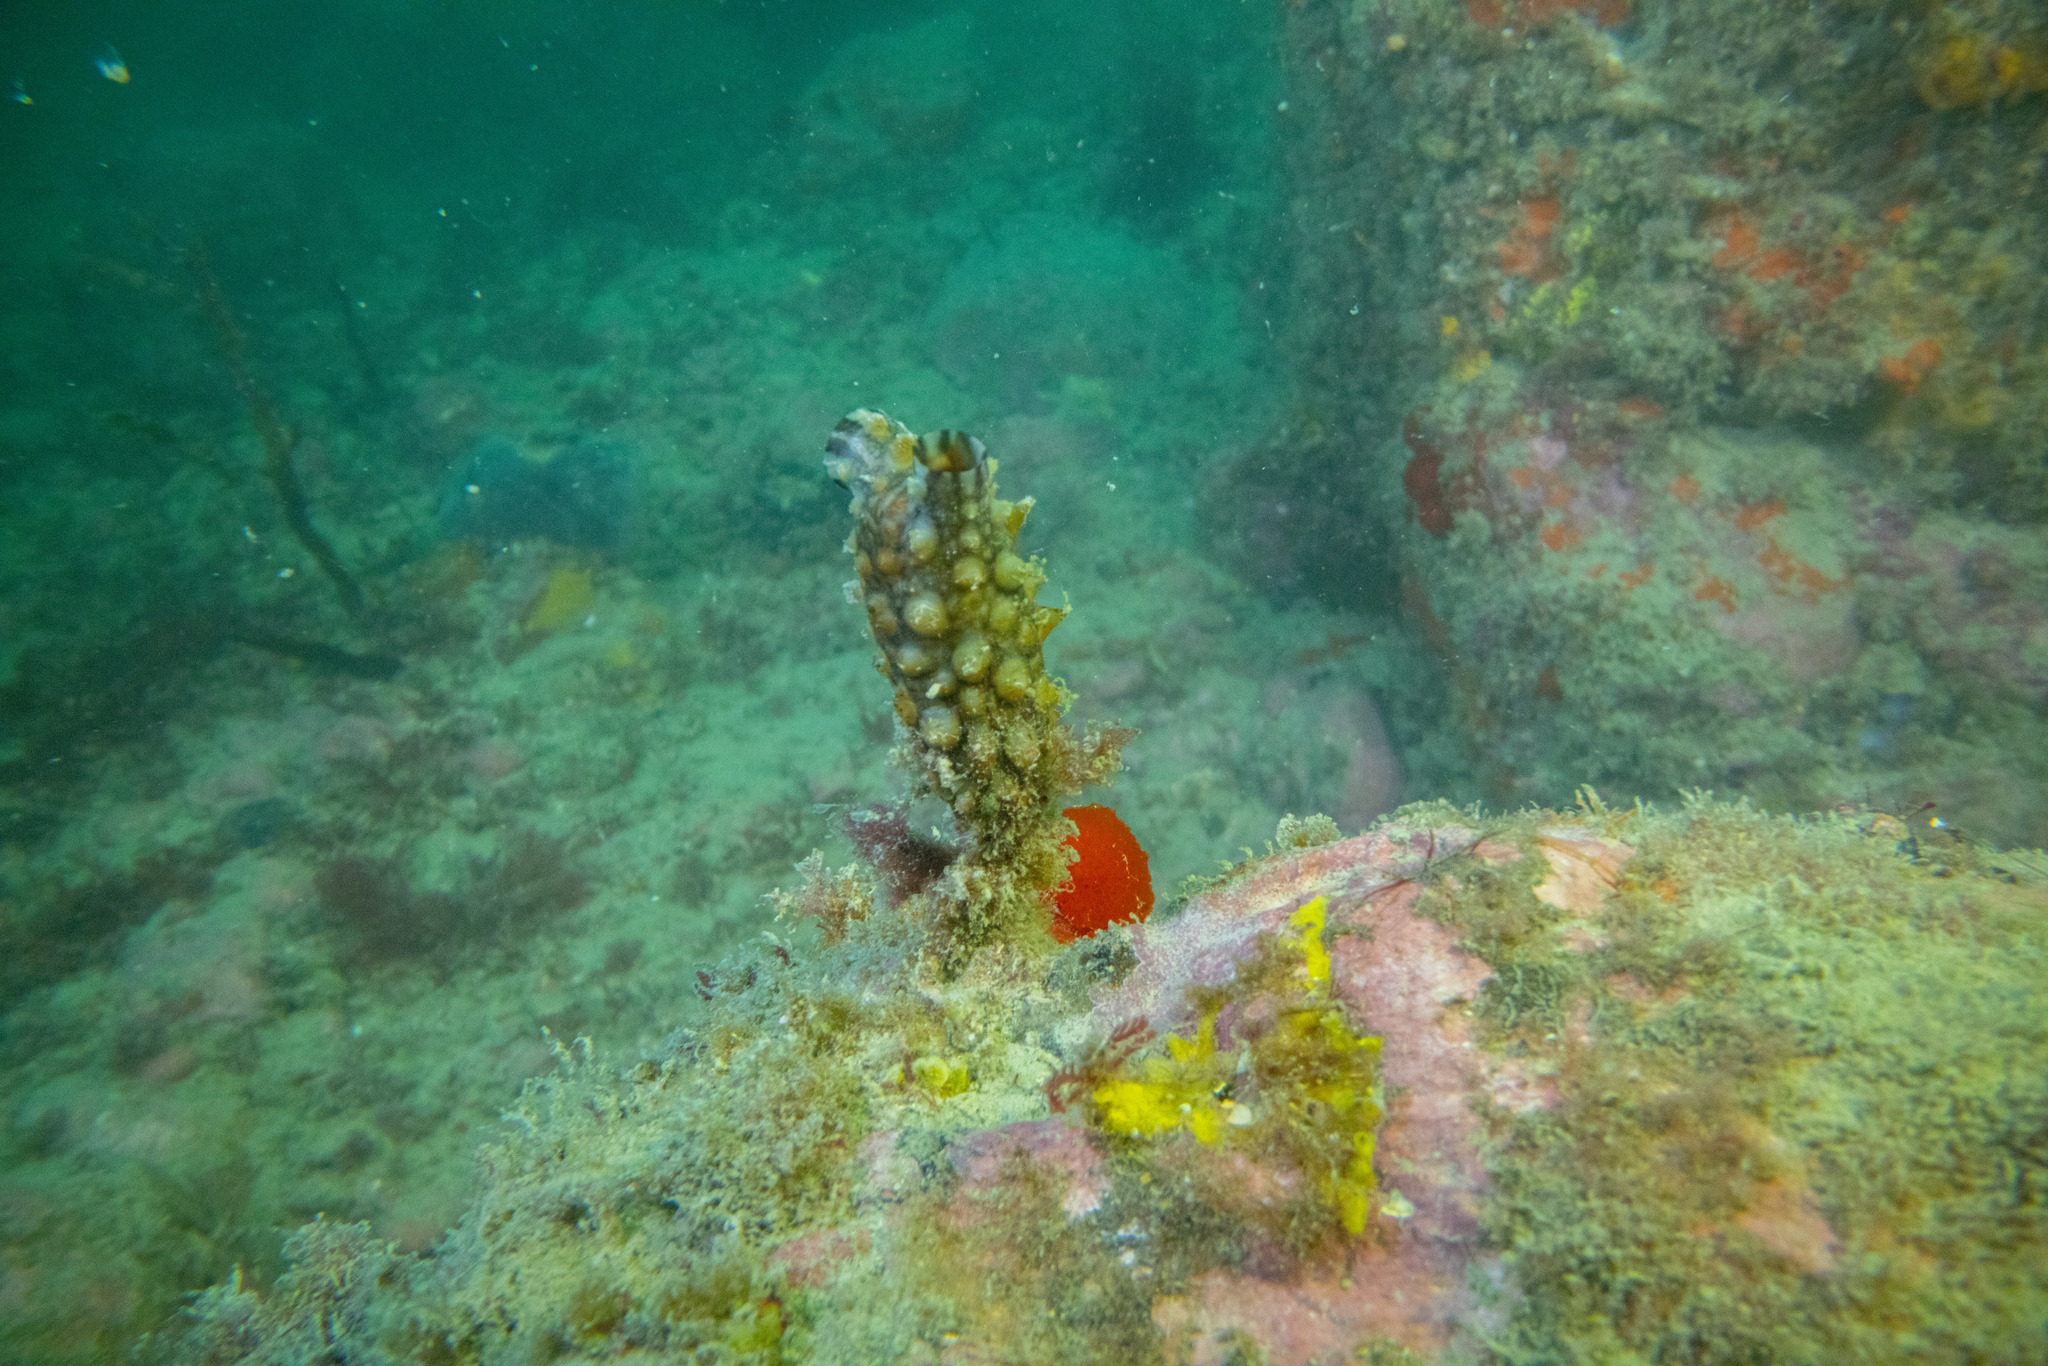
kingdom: Animalia
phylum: Chordata
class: Ascidiacea
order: Stolidobranchia
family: Styelidae
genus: Styela
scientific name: Styela clava
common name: Leathery sea squirt
